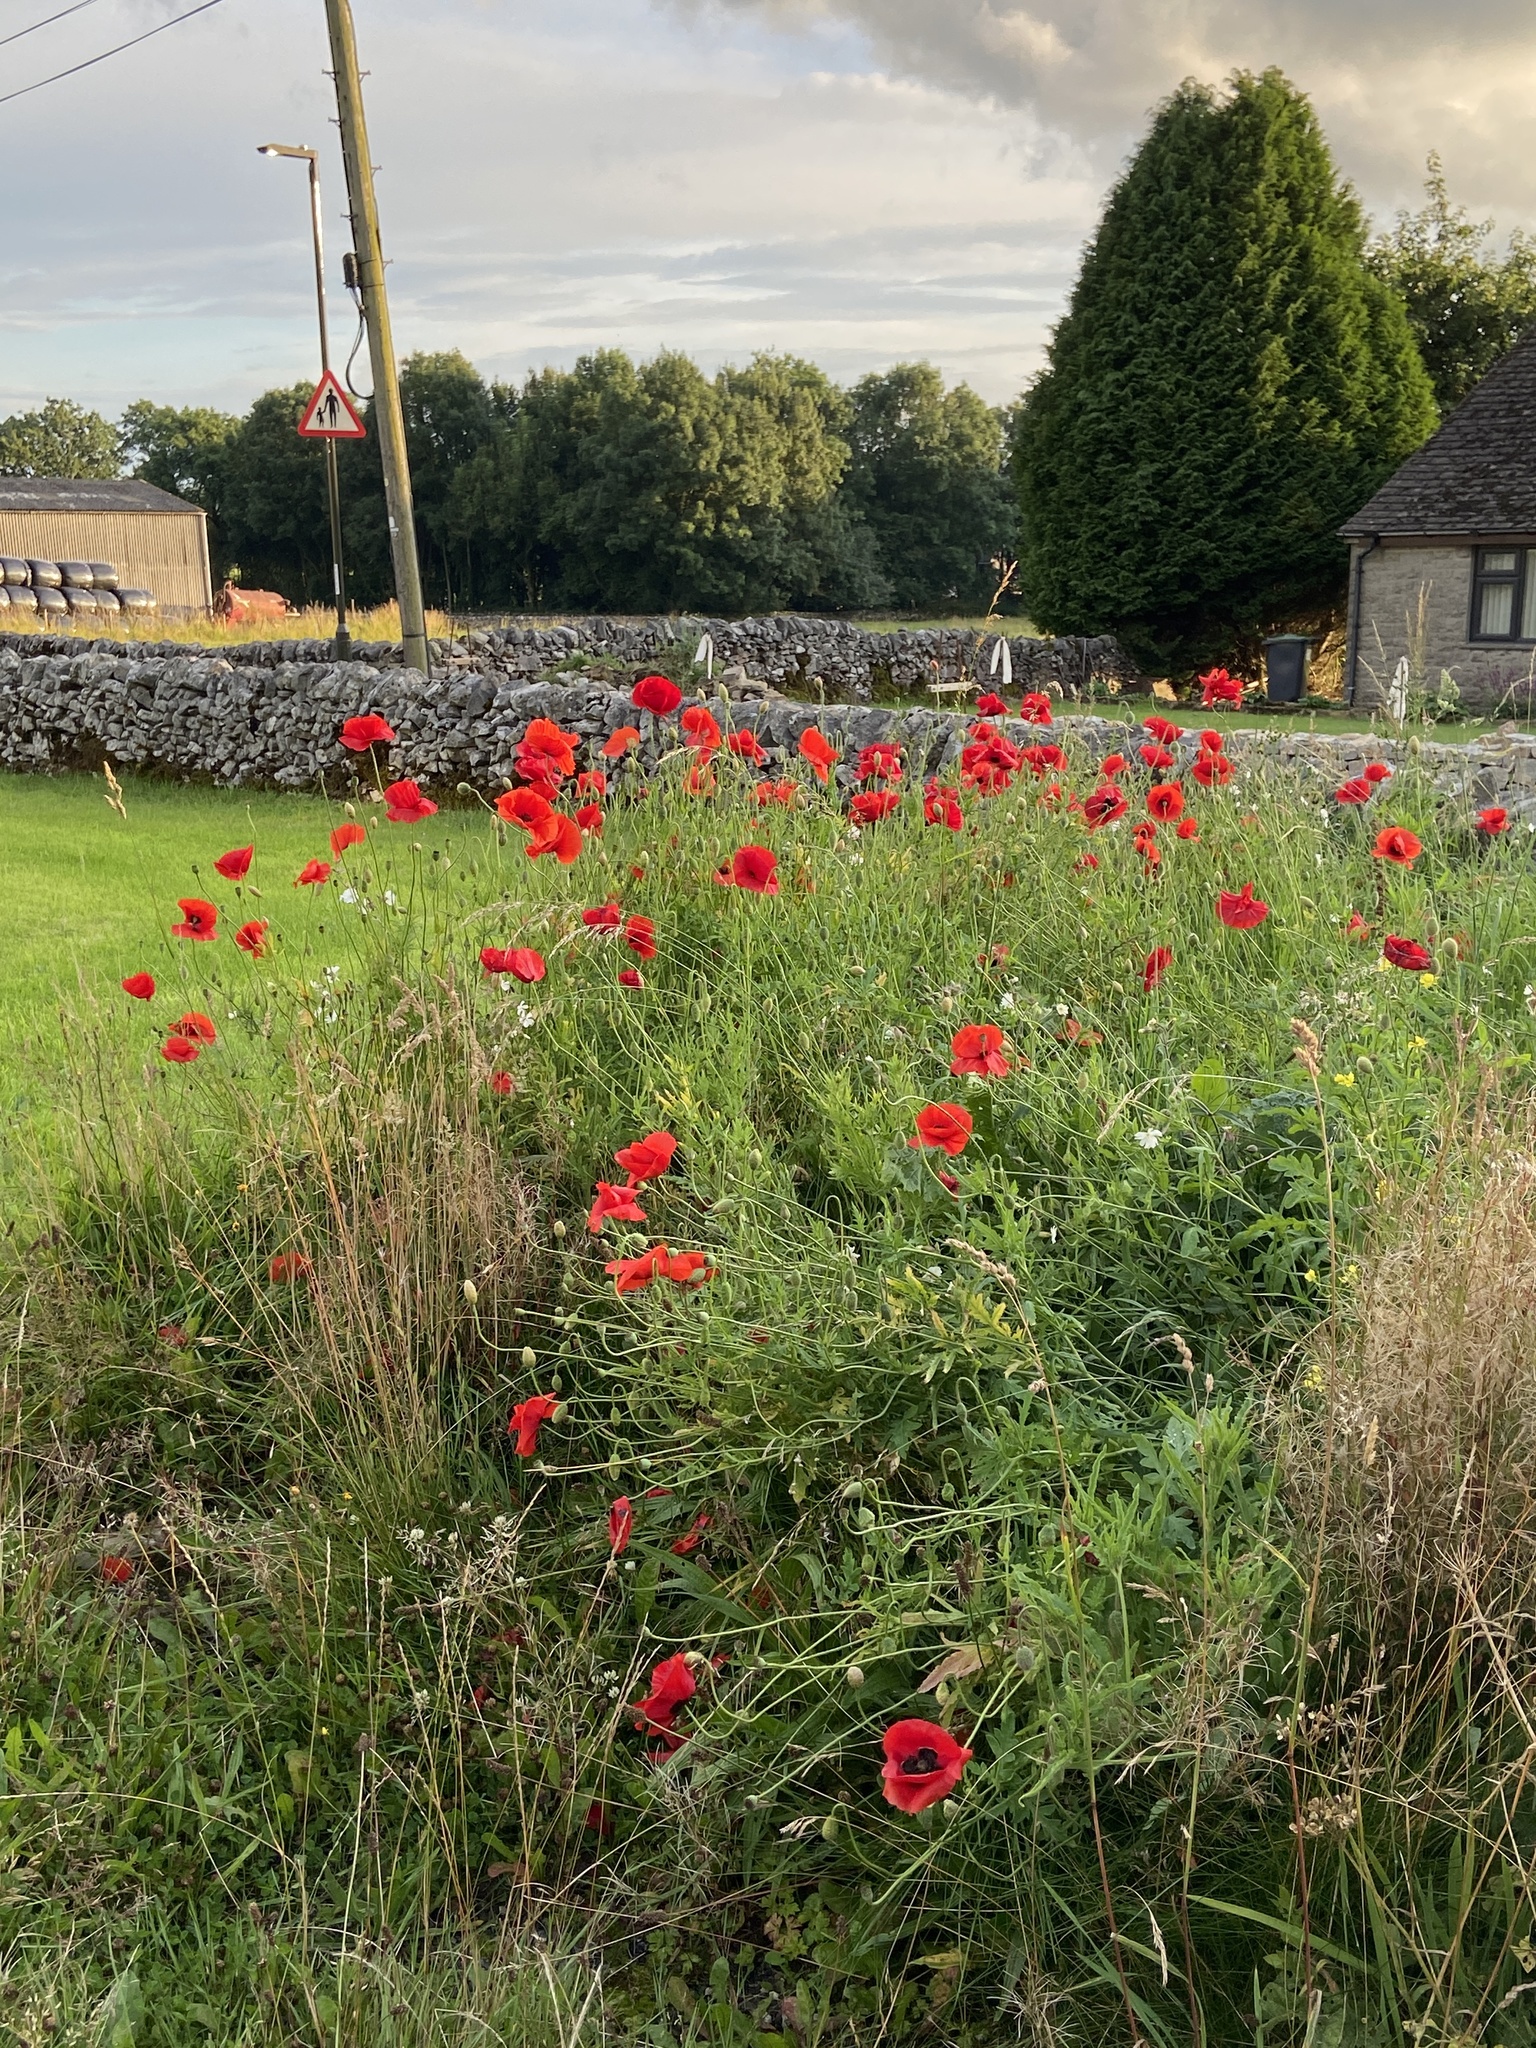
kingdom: Plantae
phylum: Tracheophyta
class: Magnoliopsida
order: Ranunculales
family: Papaveraceae
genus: Papaver
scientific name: Papaver rhoeas
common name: Corn poppy
